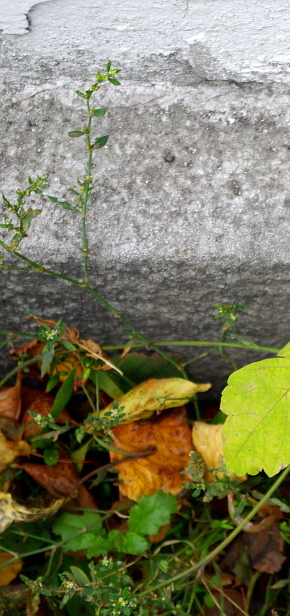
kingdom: Plantae
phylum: Tracheophyta
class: Magnoliopsida
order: Caryophyllales
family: Polygonaceae
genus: Polygonum
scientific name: Polygonum
